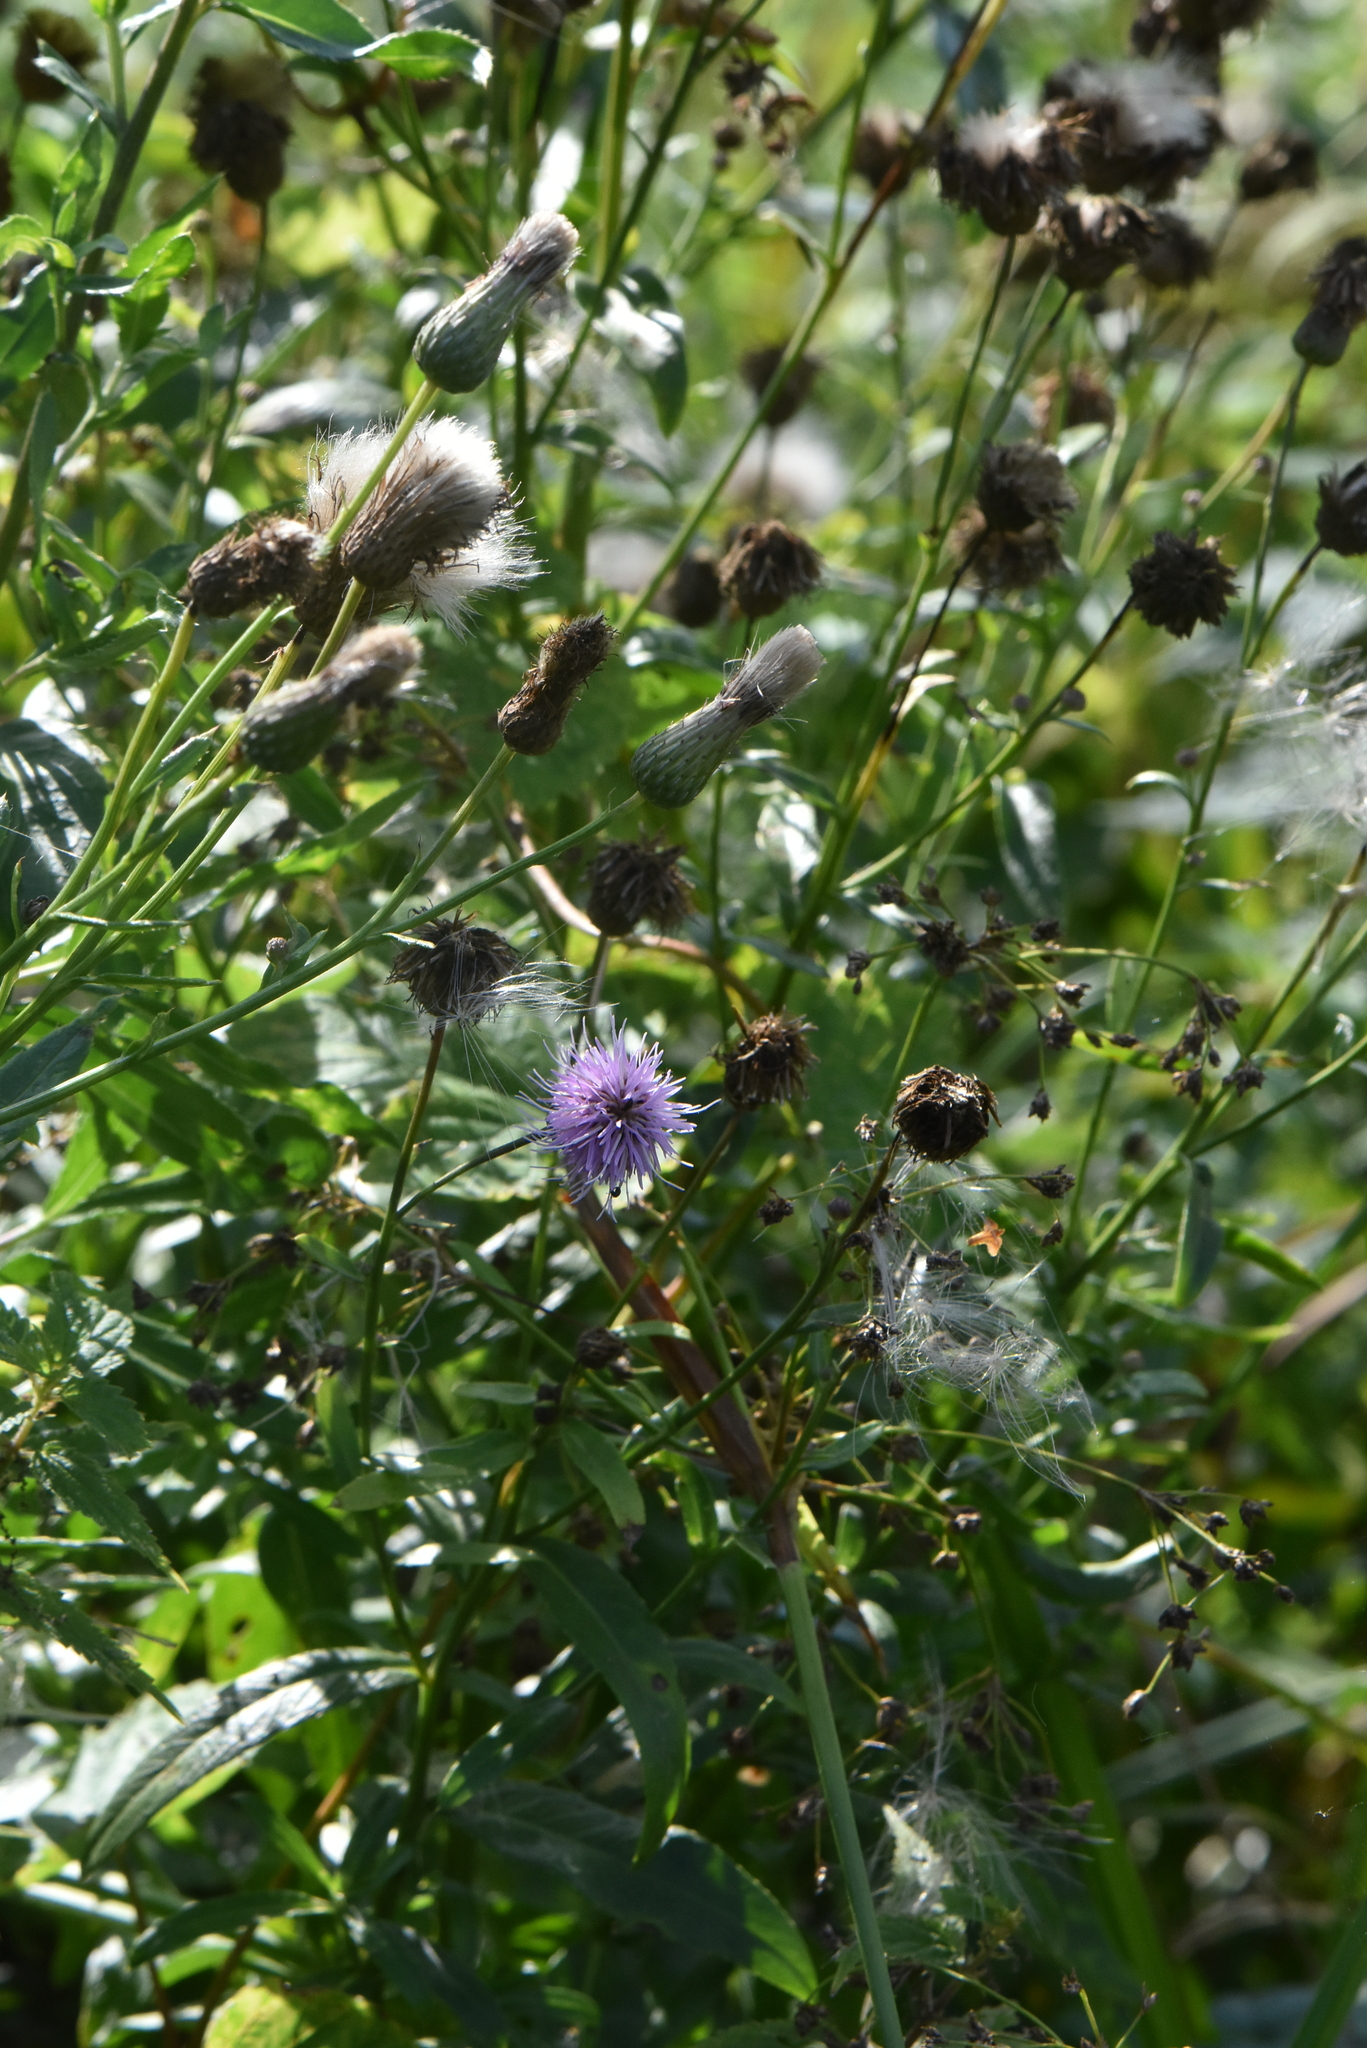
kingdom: Plantae
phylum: Tracheophyta
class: Magnoliopsida
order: Asterales
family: Asteraceae
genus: Cirsium
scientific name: Cirsium arvense
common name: Creeping thistle
